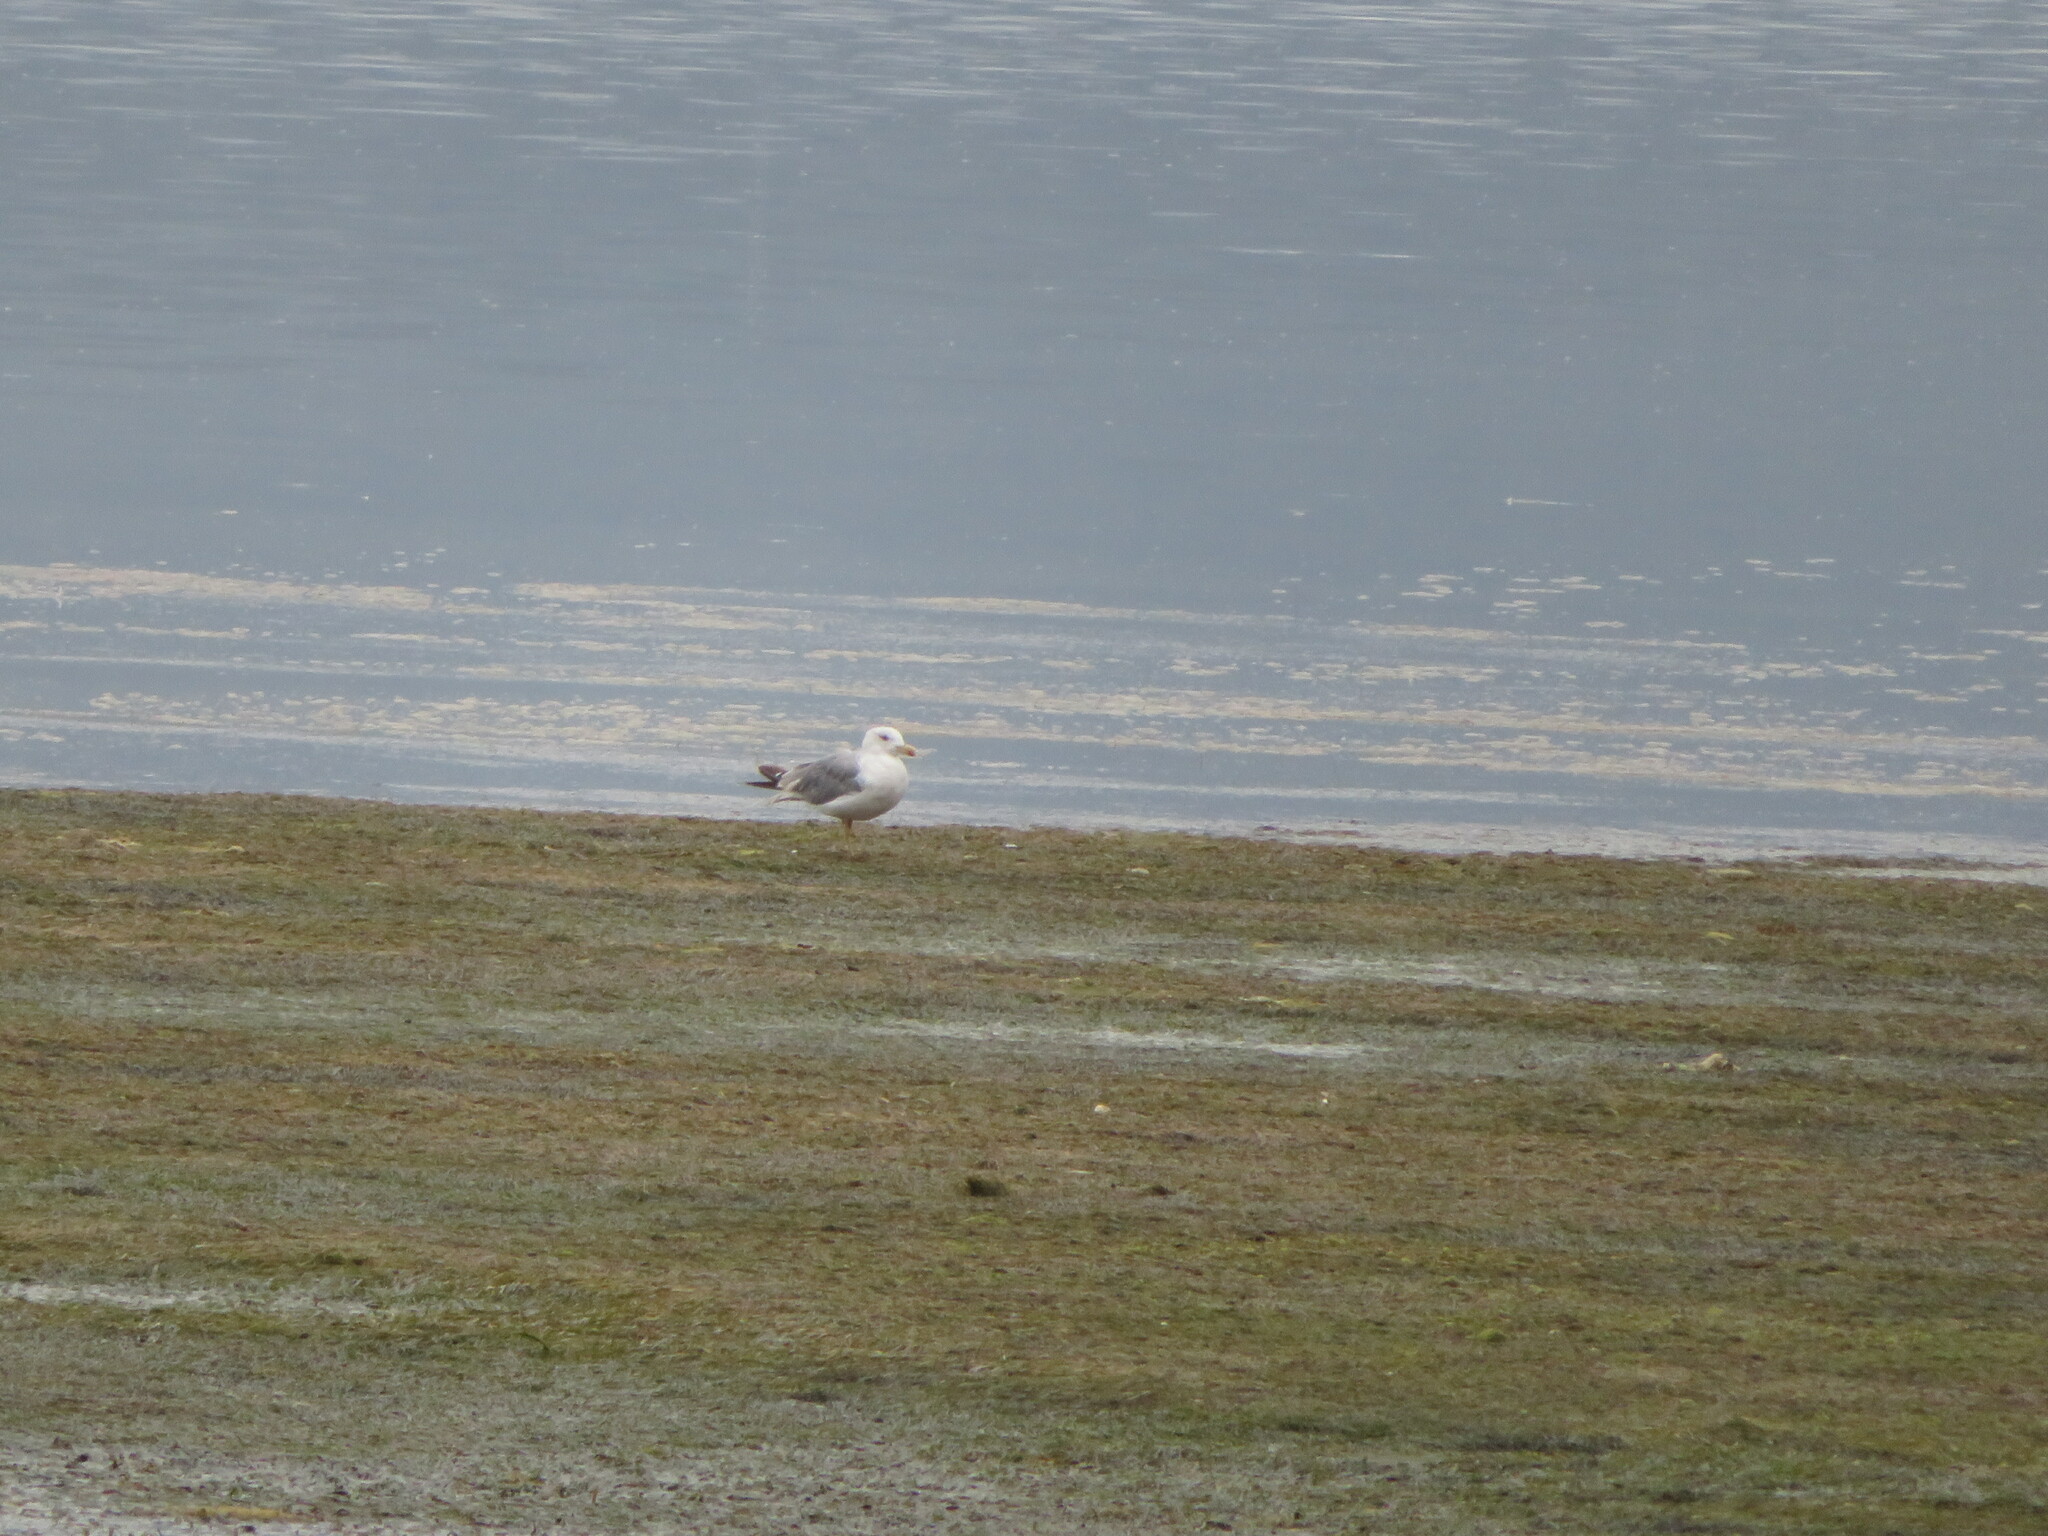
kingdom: Animalia
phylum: Chordata
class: Aves
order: Charadriiformes
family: Laridae
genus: Larus
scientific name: Larus michahellis
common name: Yellow-legged gull
